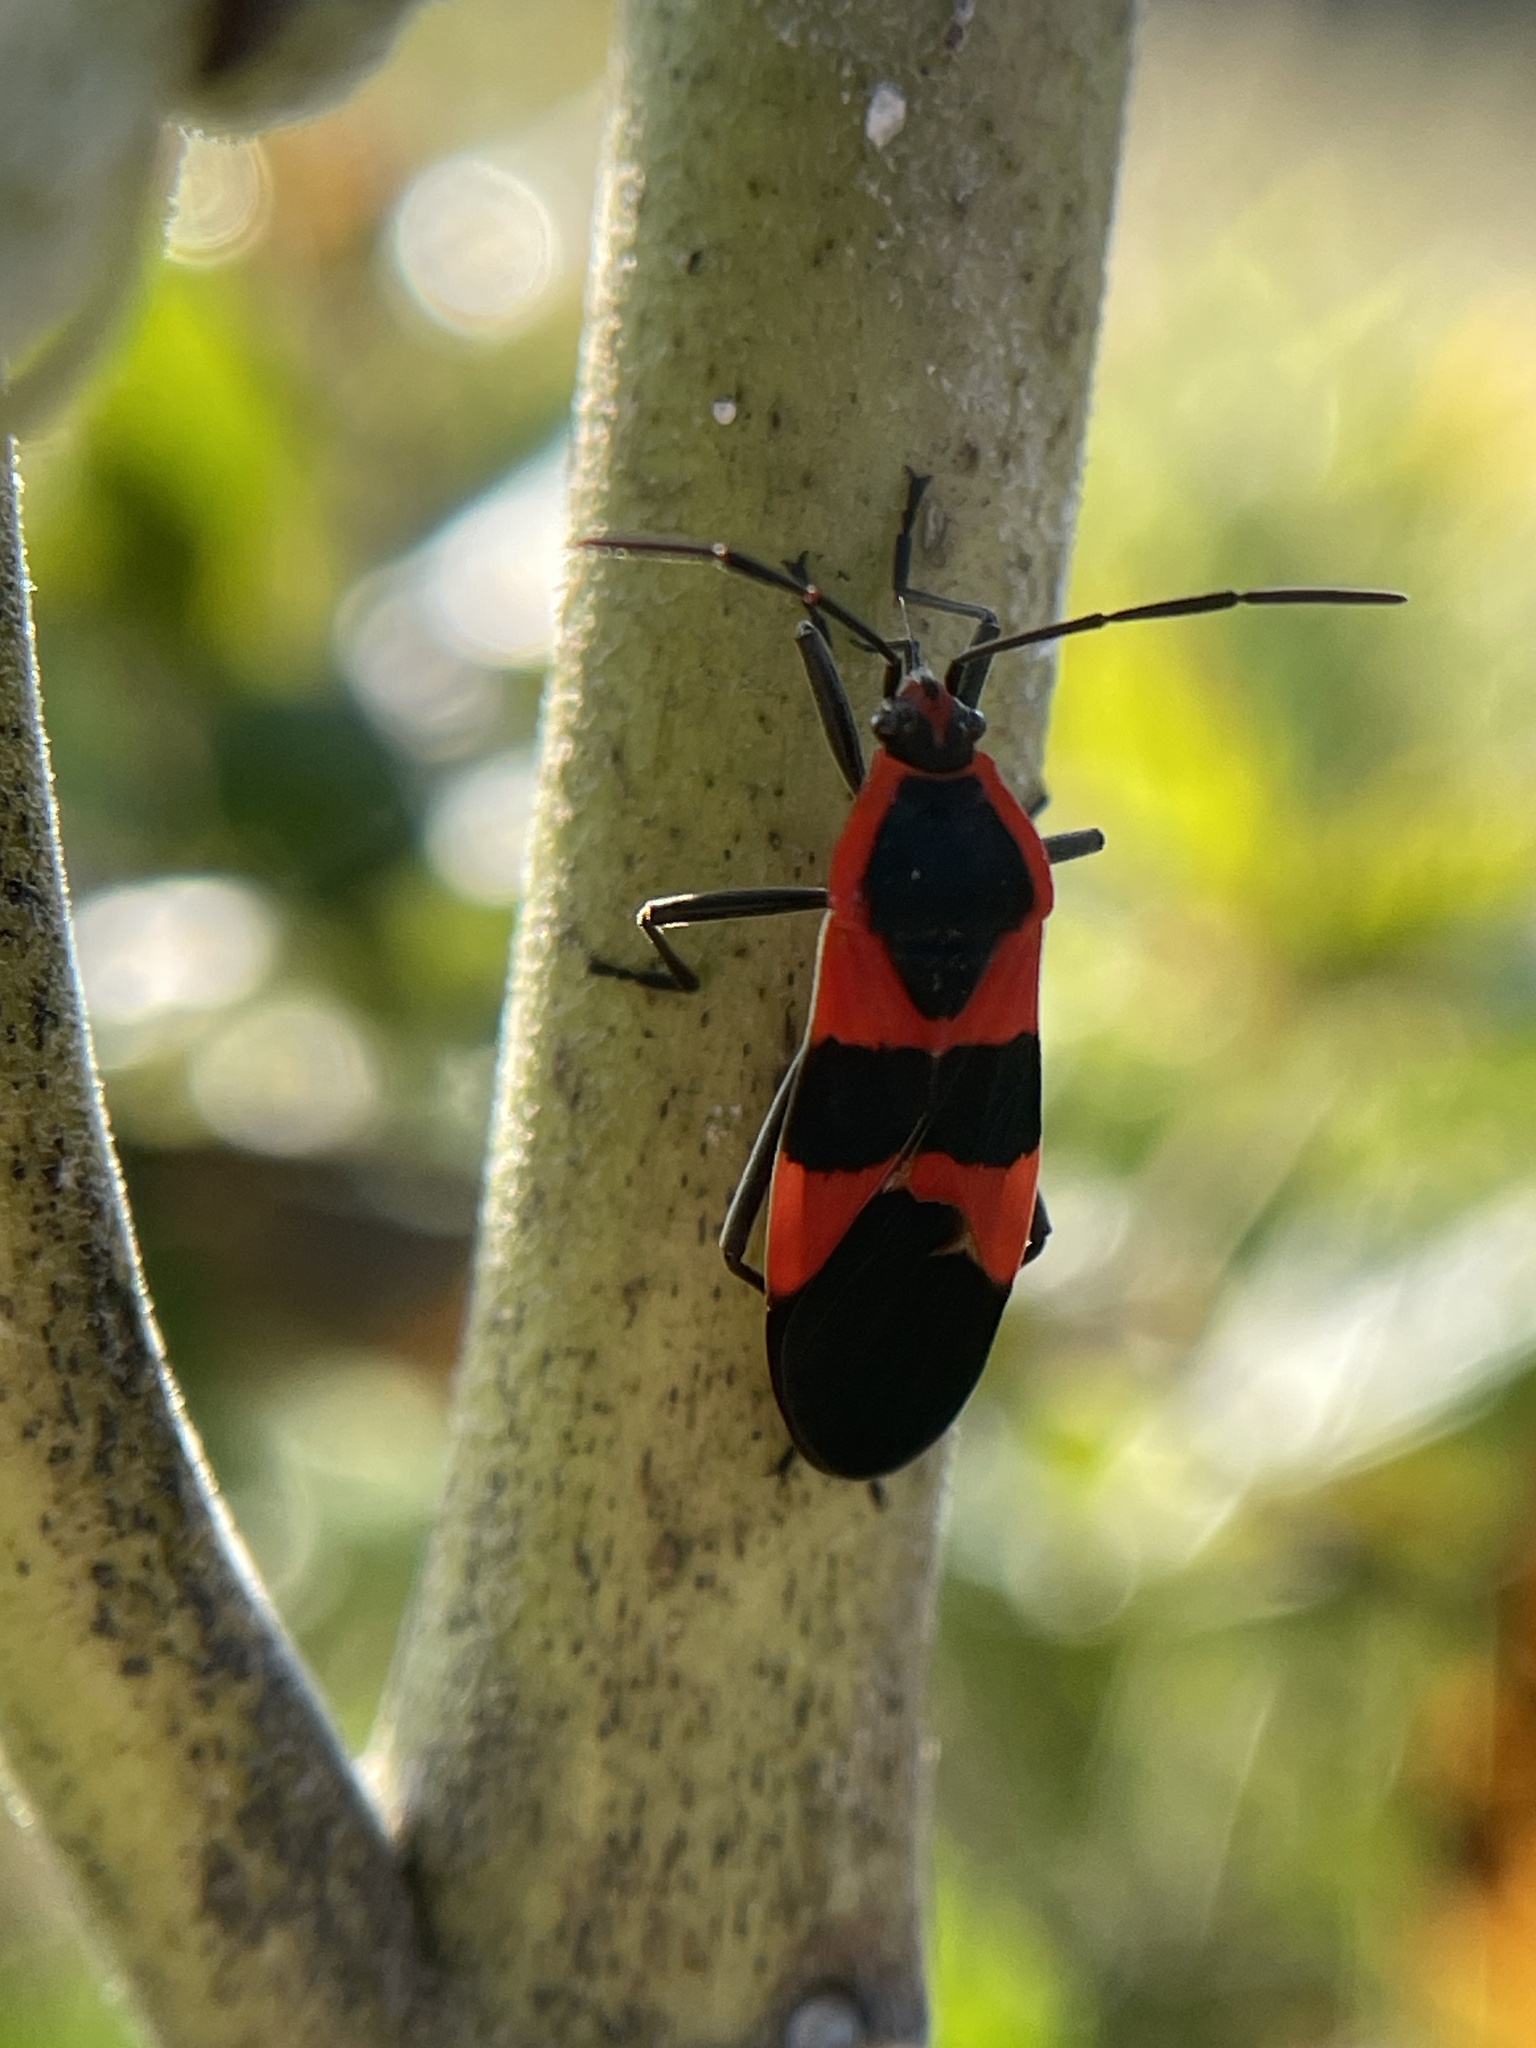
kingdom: Animalia
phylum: Arthropoda
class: Insecta
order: Hemiptera
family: Lygaeidae
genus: Oncopeltus
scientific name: Oncopeltus fasciatus
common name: Large milkweed bug
